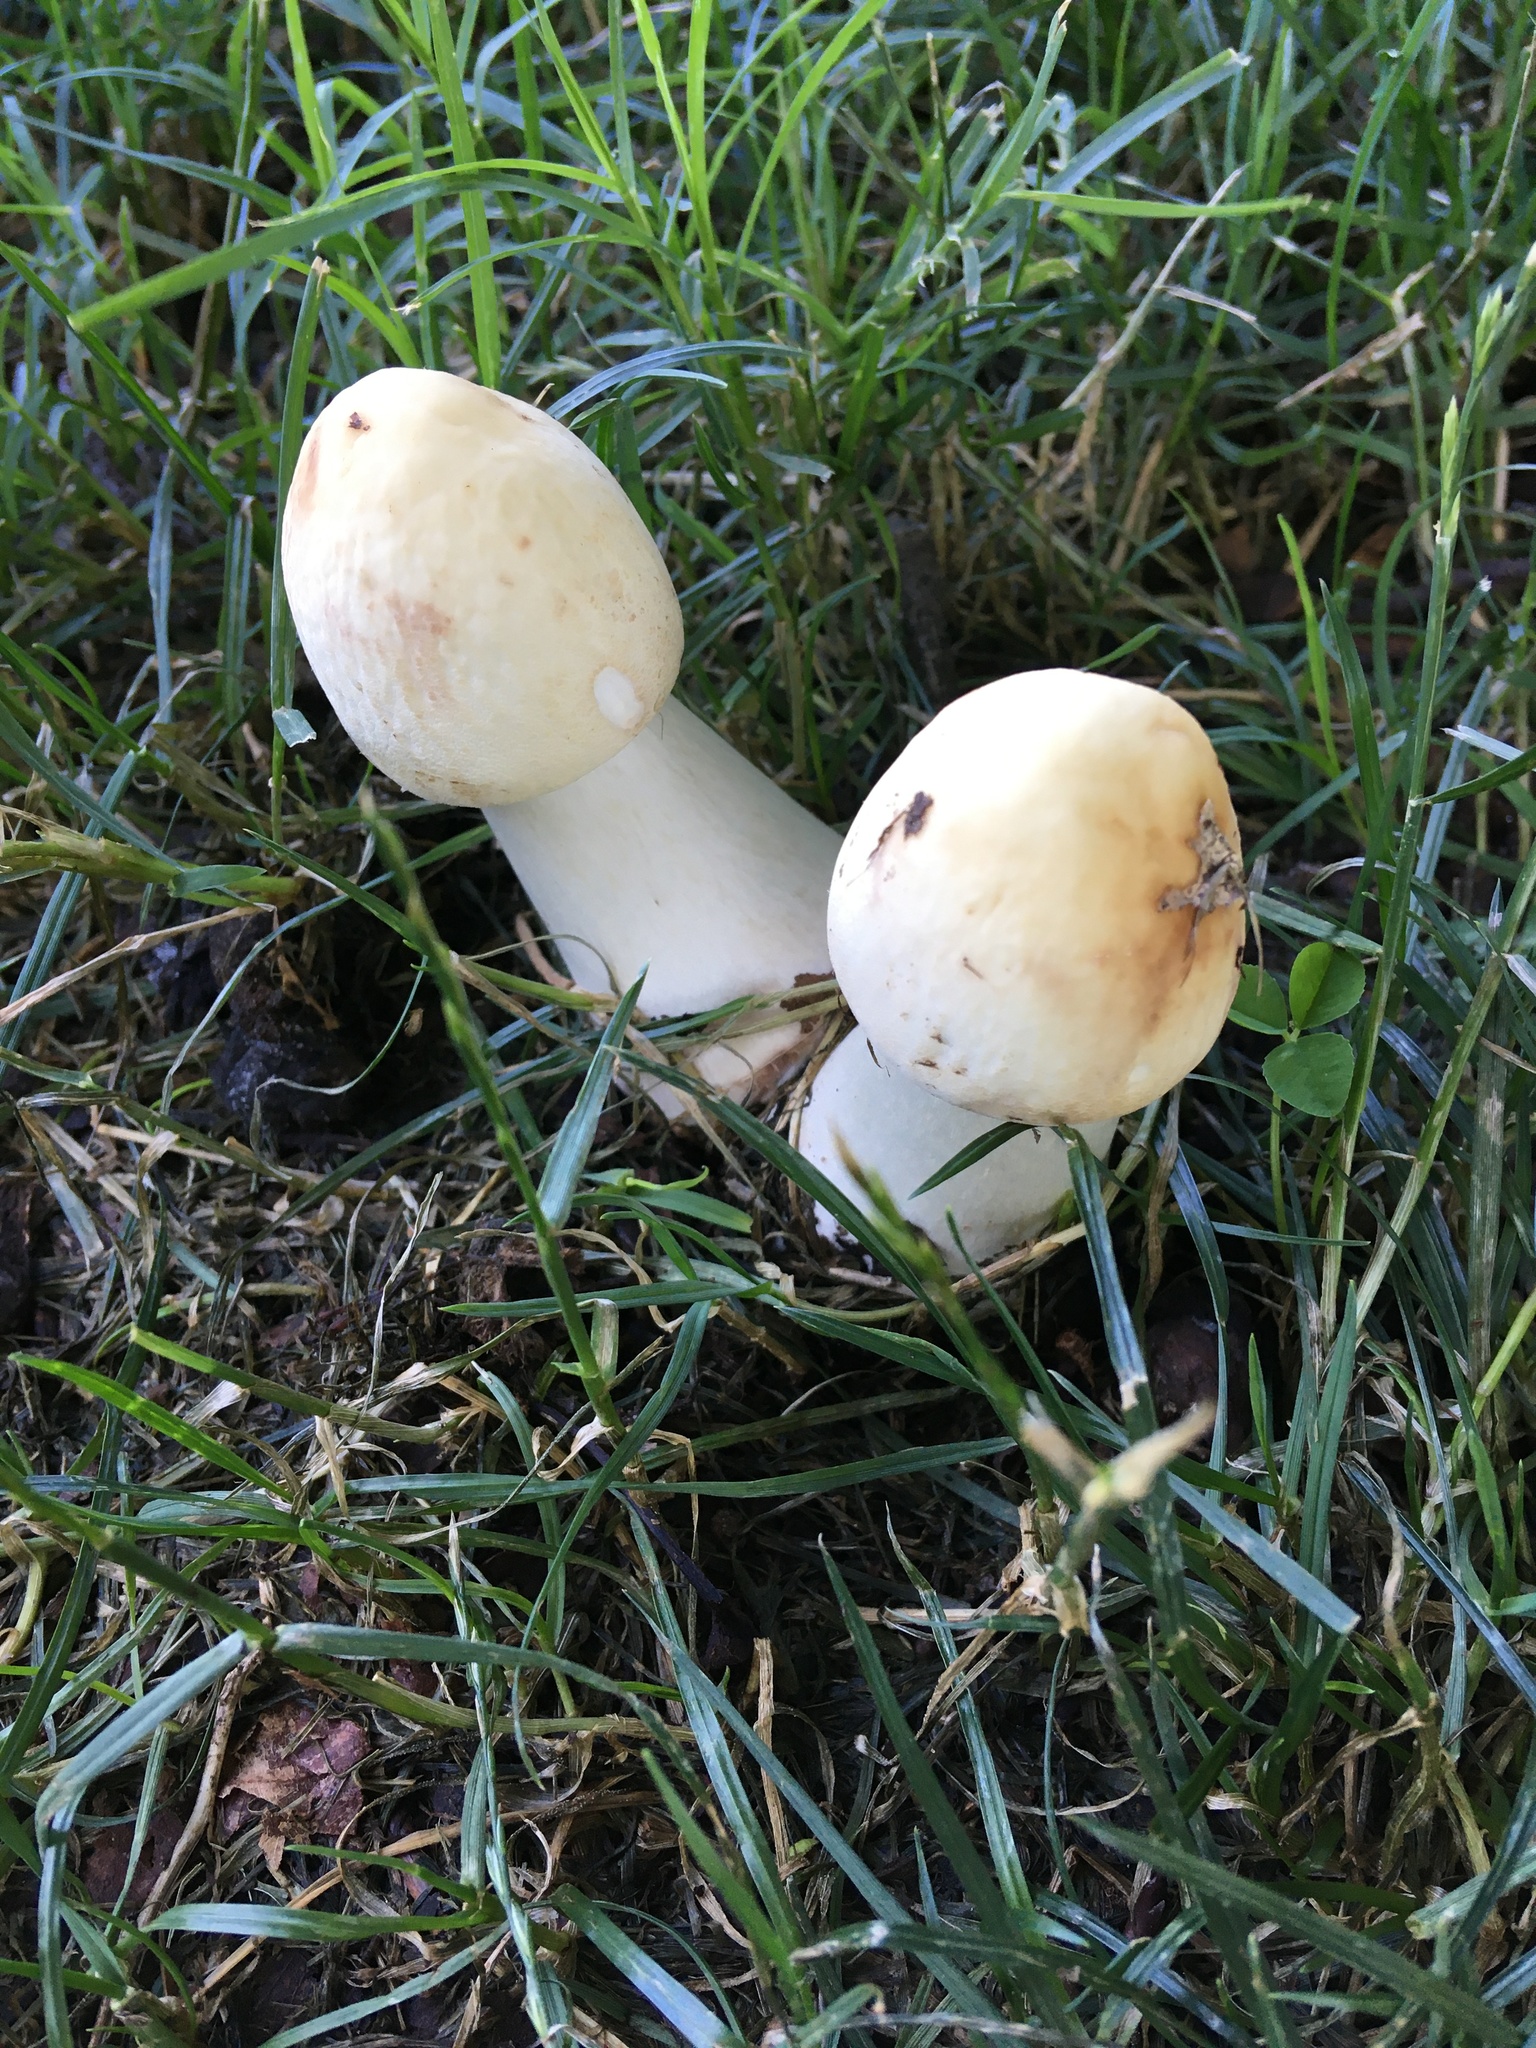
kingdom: Fungi
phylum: Basidiomycota
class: Agaricomycetes
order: Agaricales
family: Agaricaceae
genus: Chlorophyllum
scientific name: Chlorophyllum molybdites
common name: False parasol
